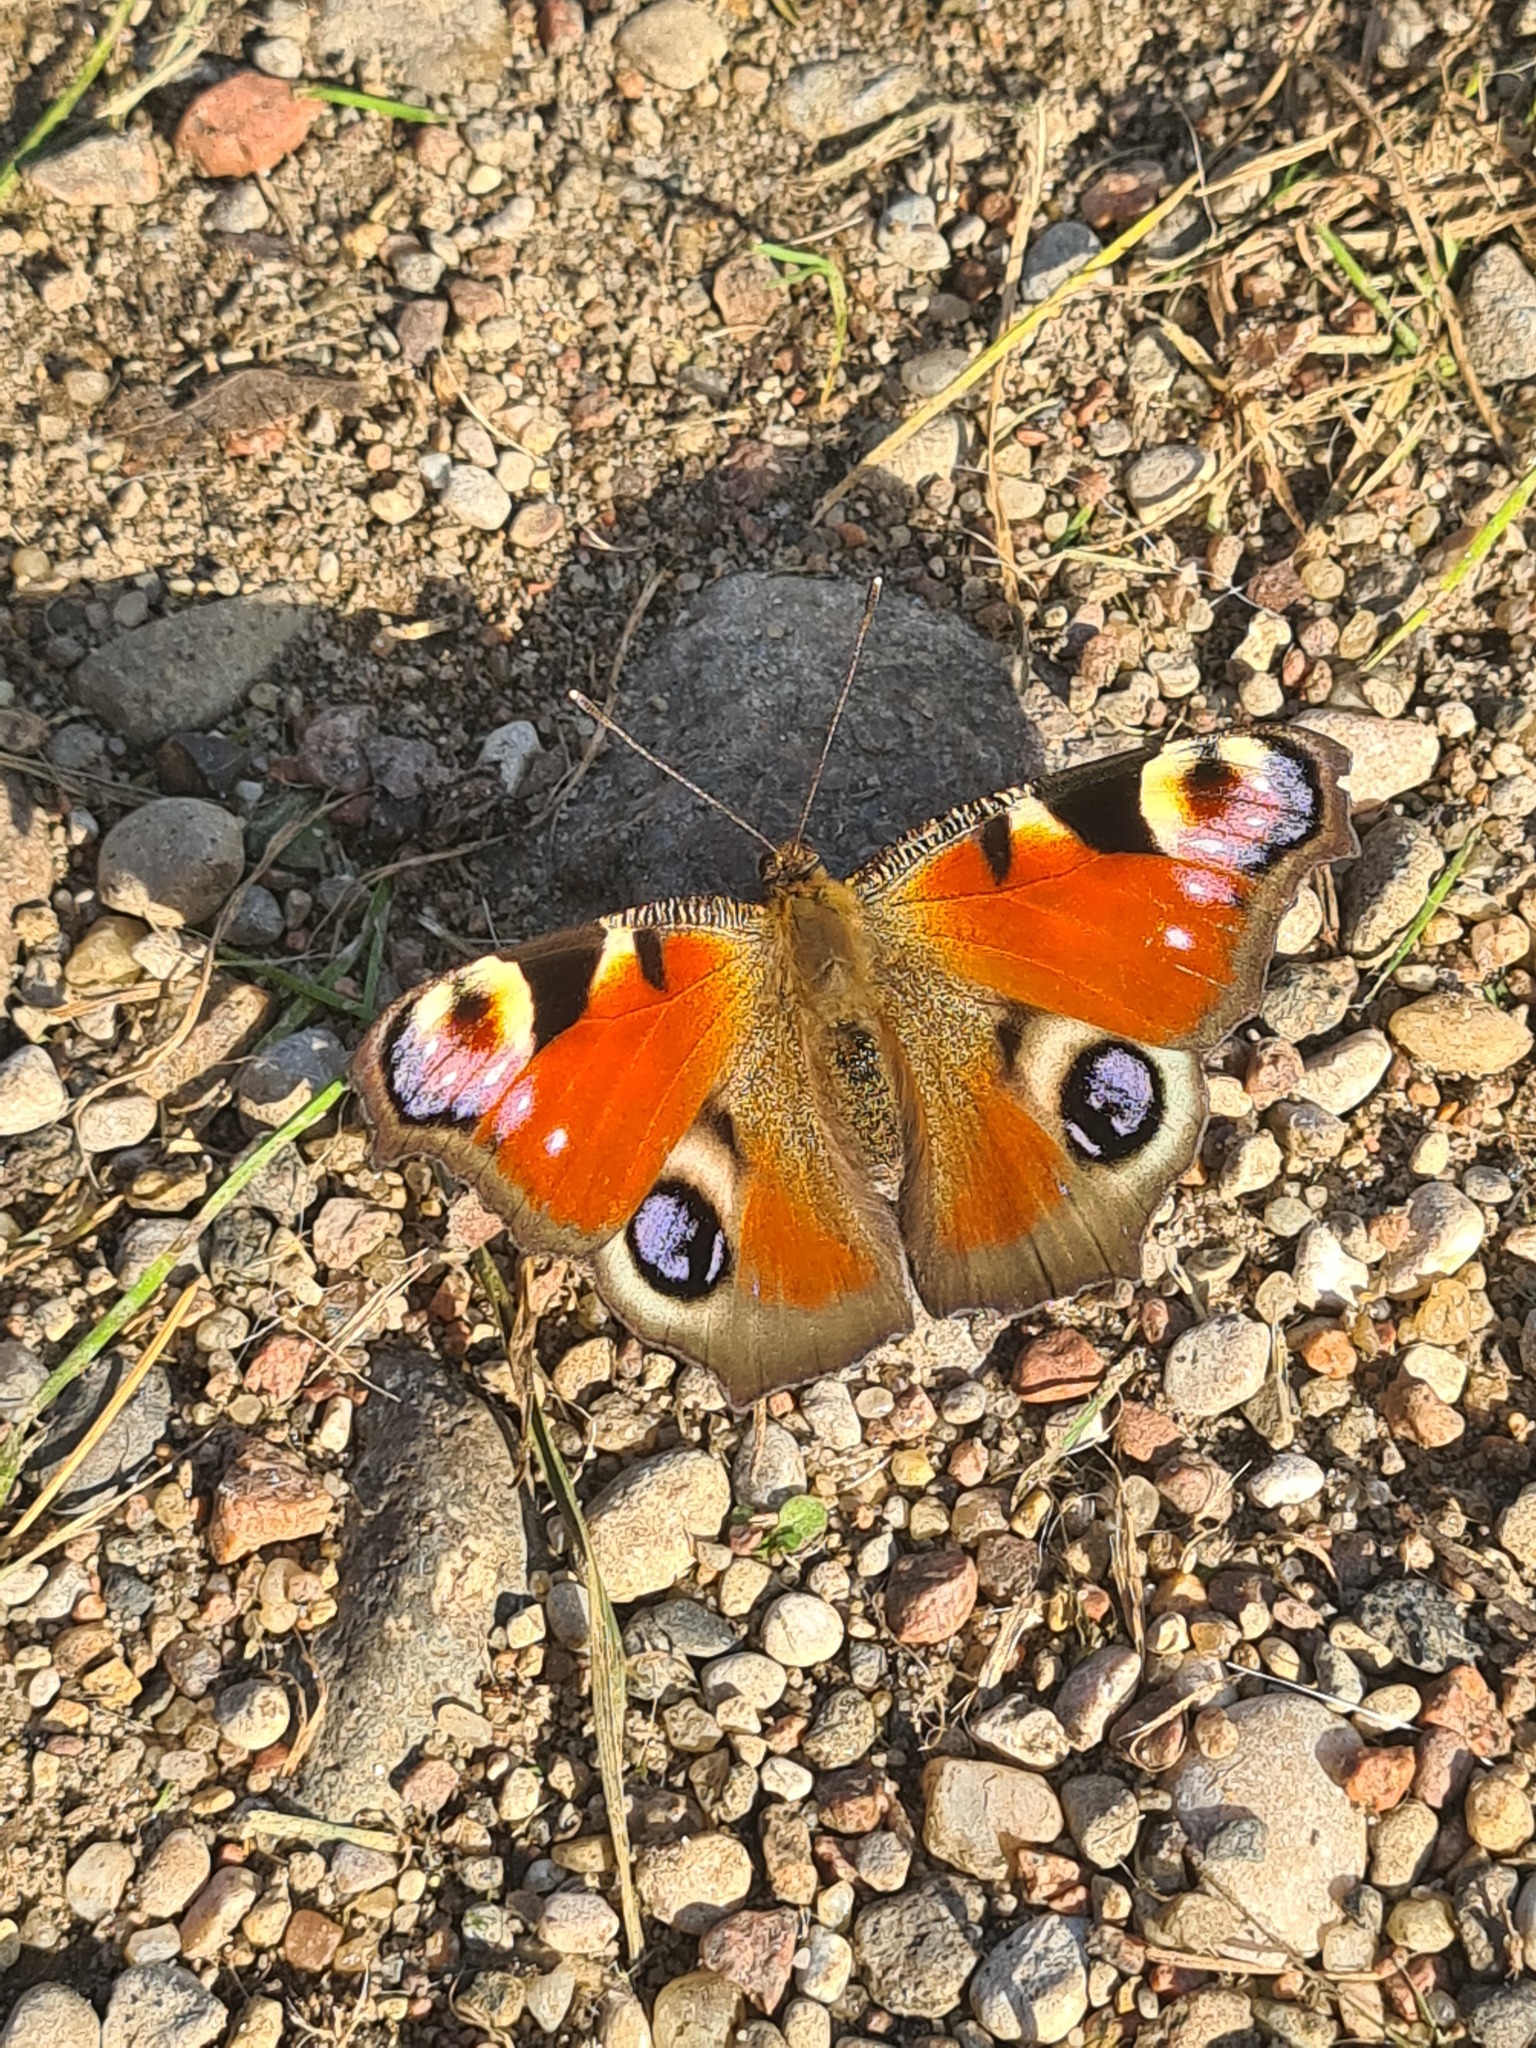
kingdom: Animalia
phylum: Arthropoda
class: Insecta
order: Lepidoptera
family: Nymphalidae
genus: Aglais
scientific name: Aglais io
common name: Peacock
